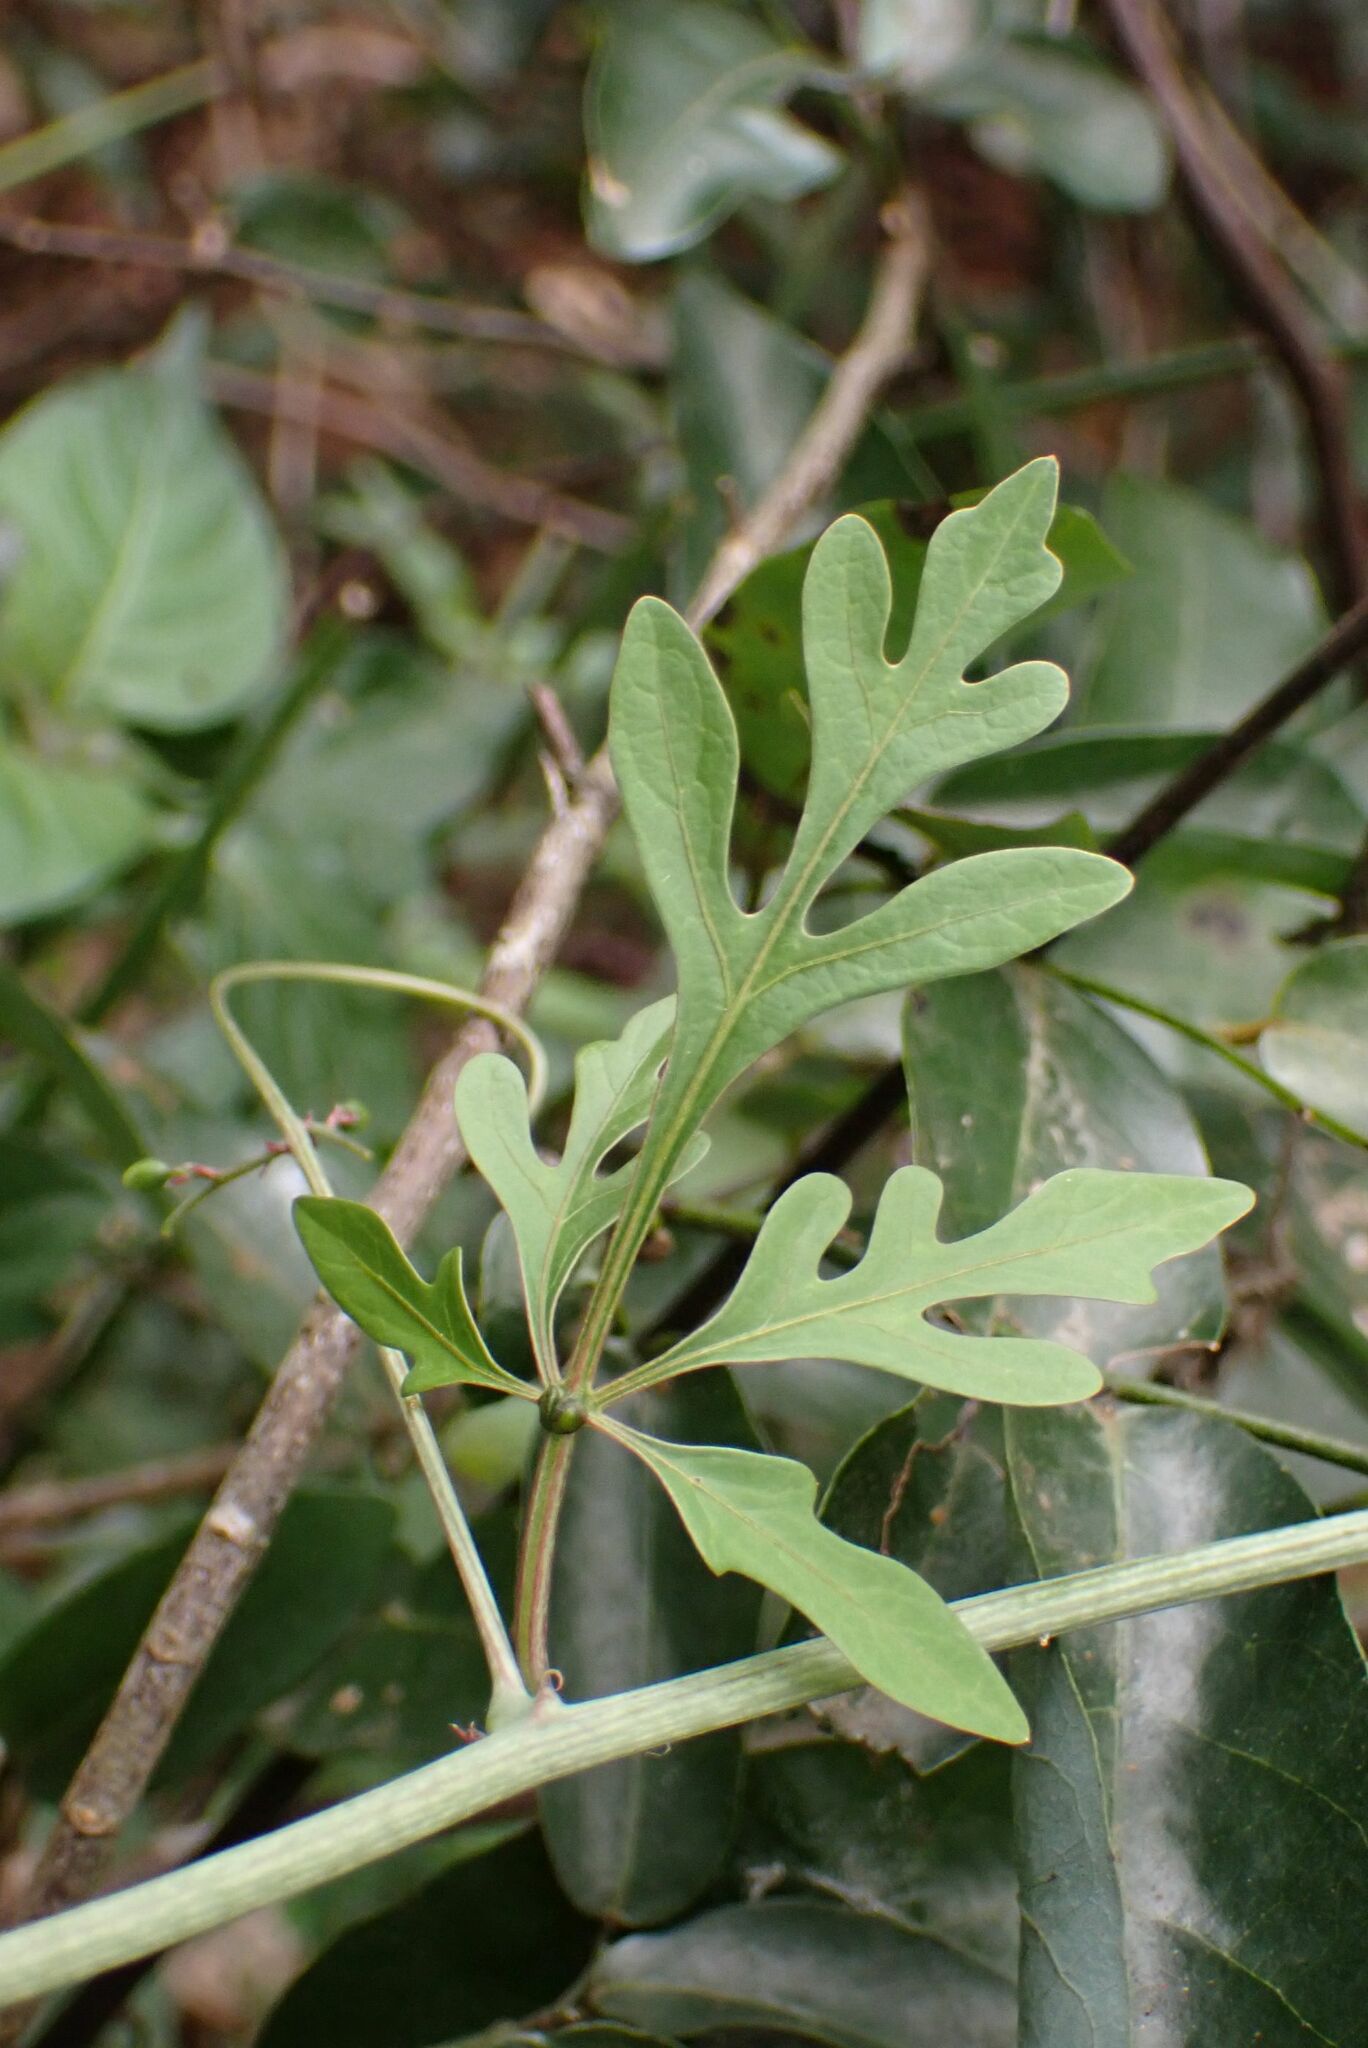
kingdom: Plantae
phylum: Tracheophyta
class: Magnoliopsida
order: Malpighiales
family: Passifloraceae
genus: Adenia
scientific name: Adenia digitata
